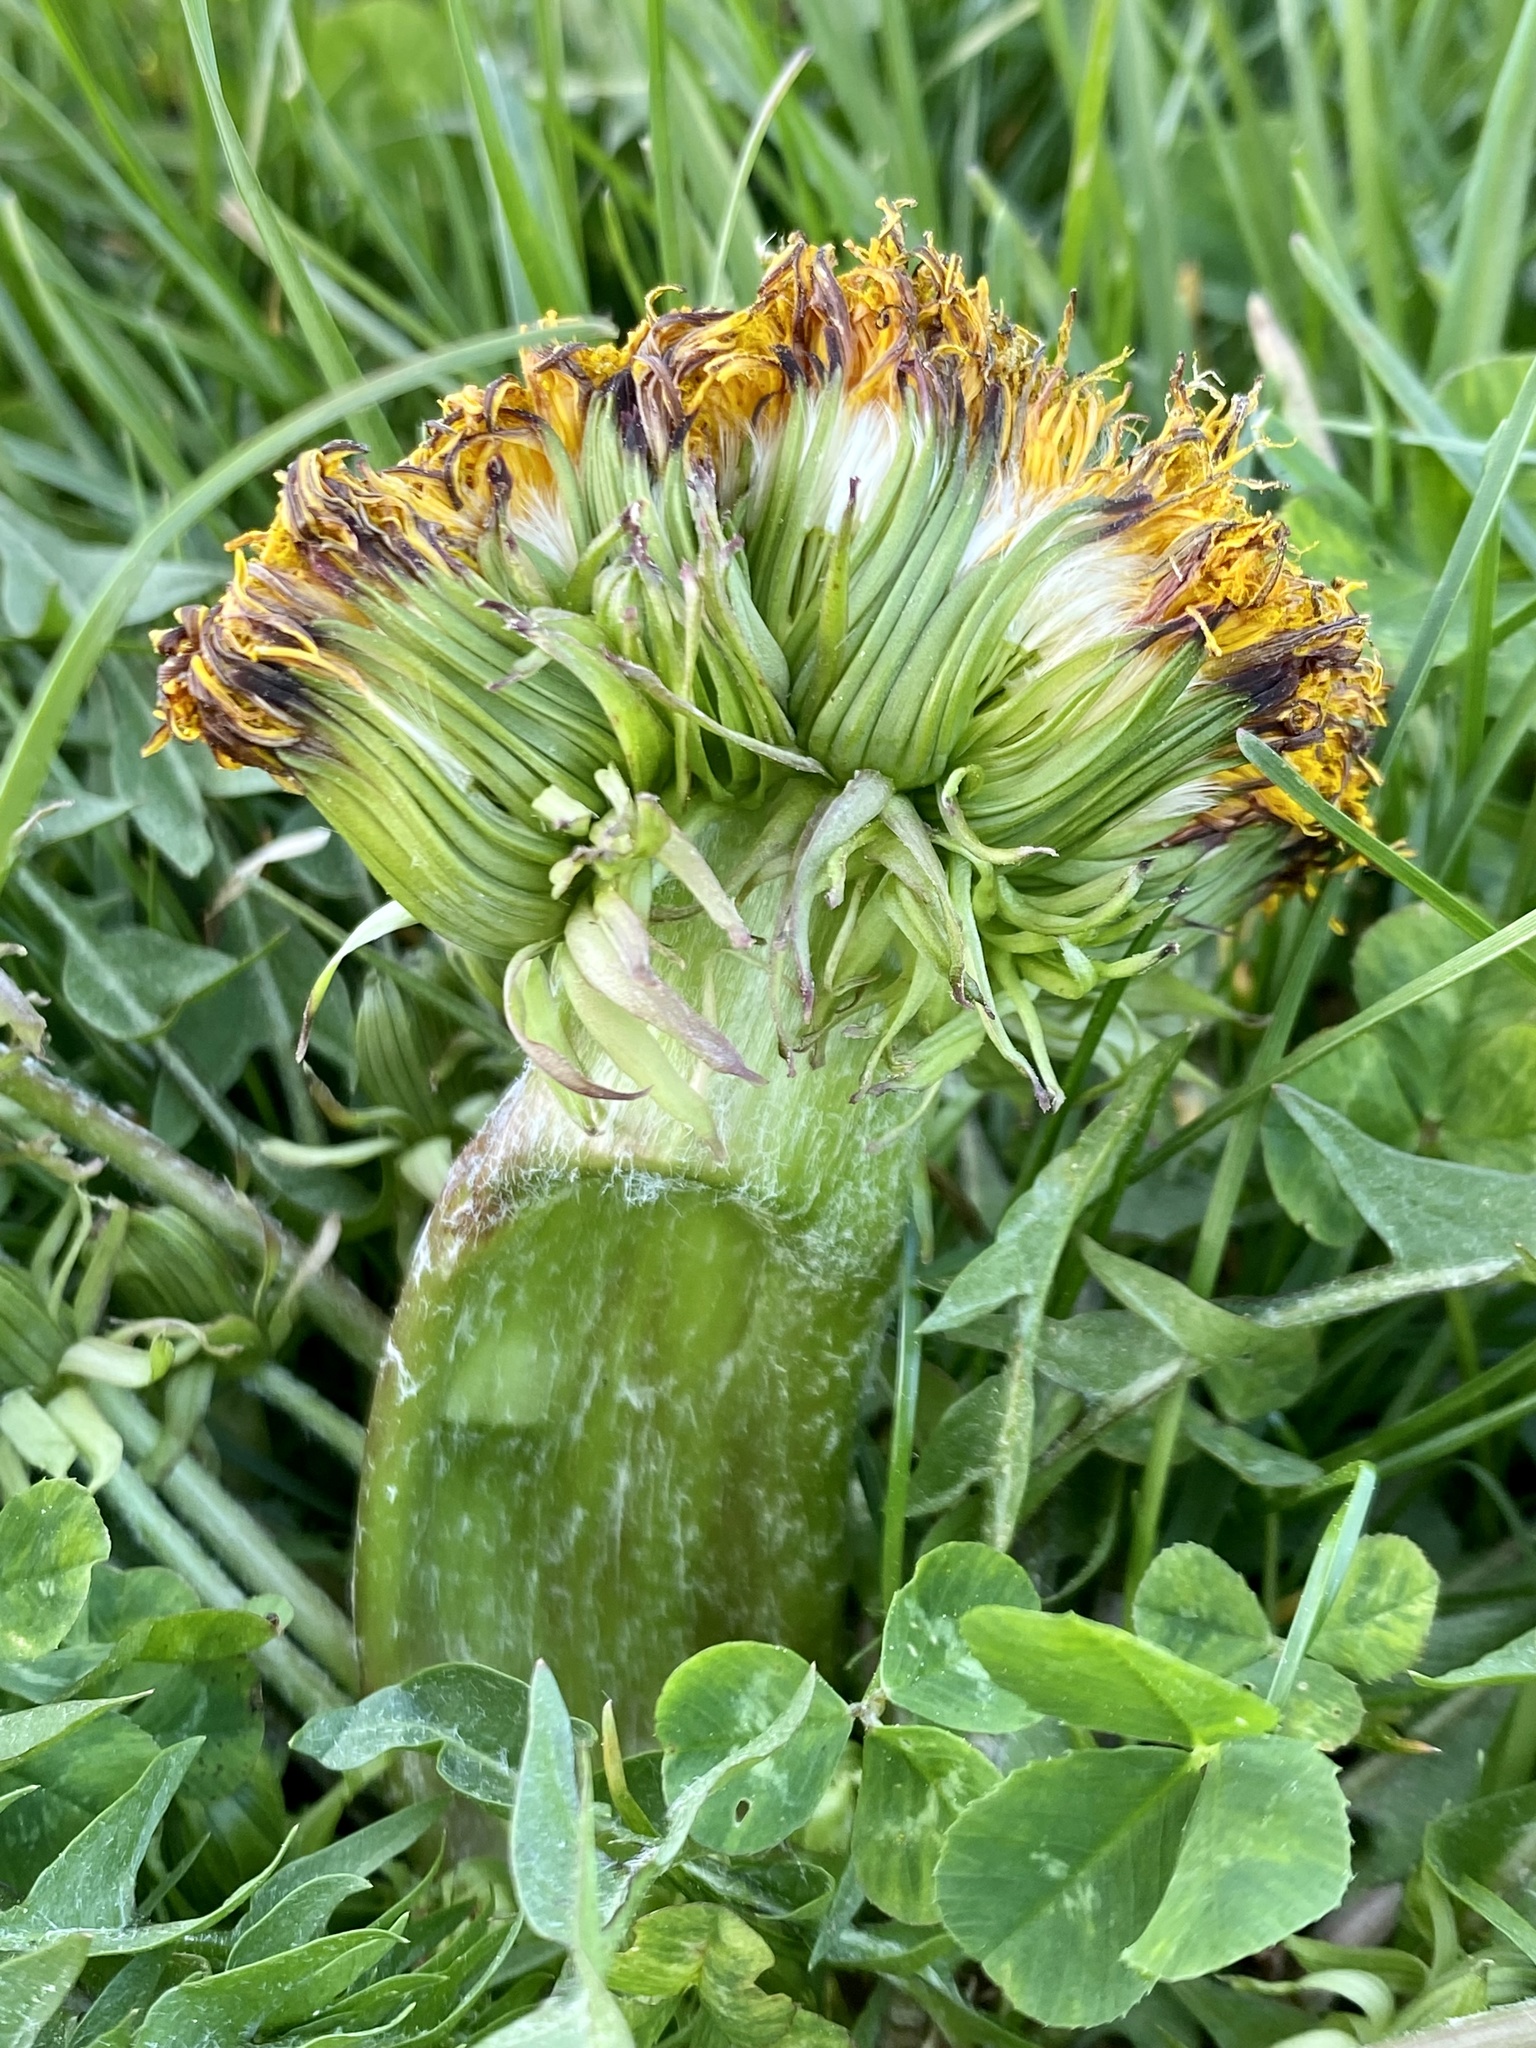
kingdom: Plantae
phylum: Tracheophyta
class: Magnoliopsida
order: Asterales
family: Asteraceae
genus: Taraxacum
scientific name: Taraxacum officinale
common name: Common dandelion
